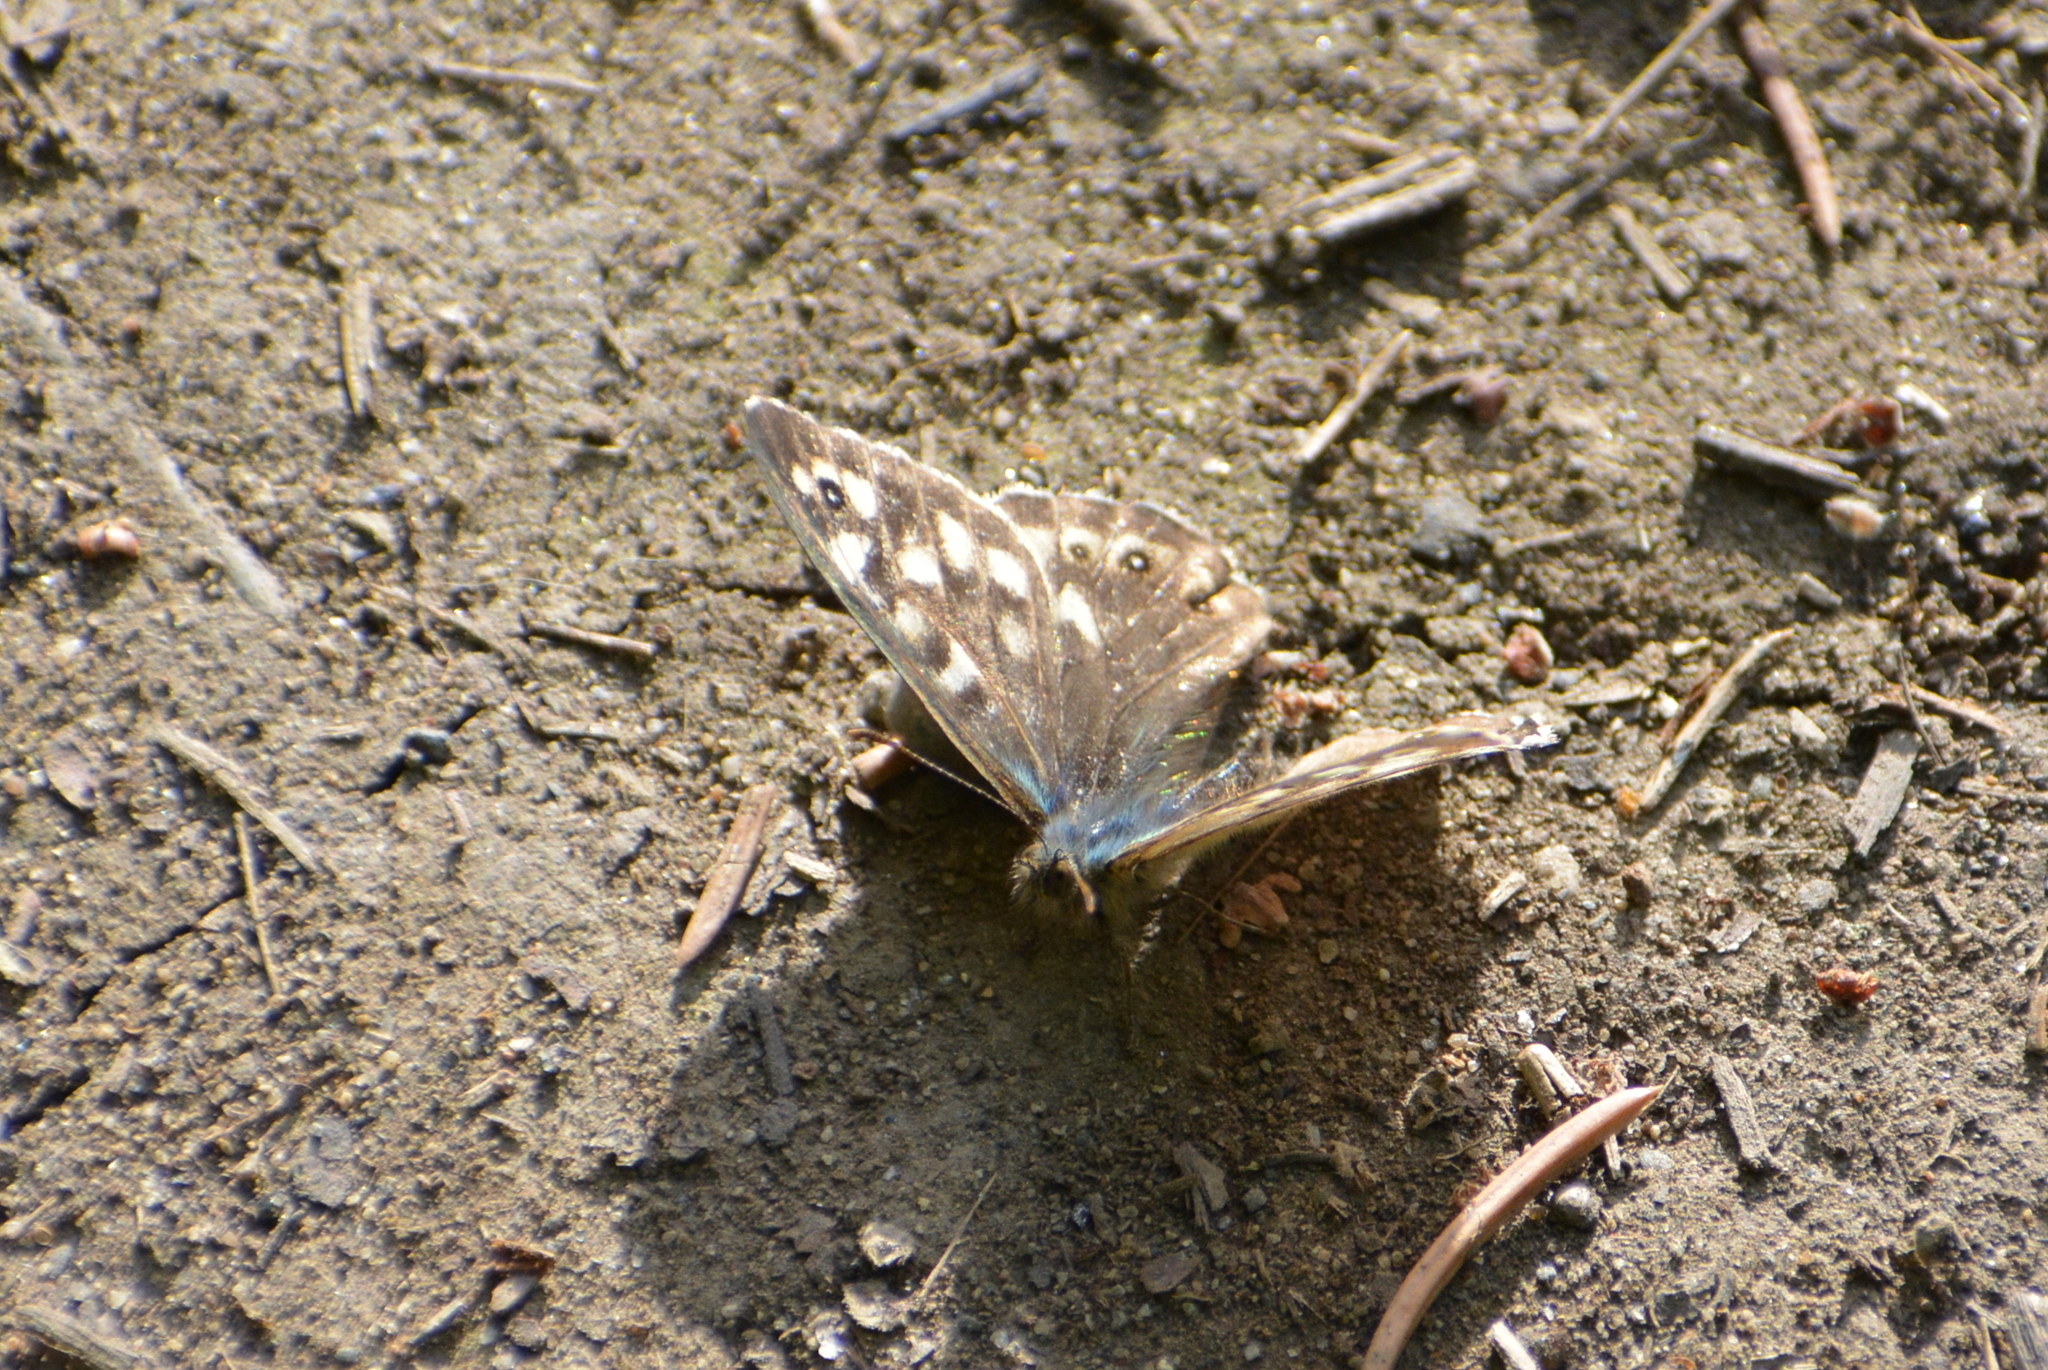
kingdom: Animalia
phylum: Arthropoda
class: Insecta
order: Lepidoptera
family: Nymphalidae
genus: Pararge
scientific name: Pararge aegeria
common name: Speckled wood
